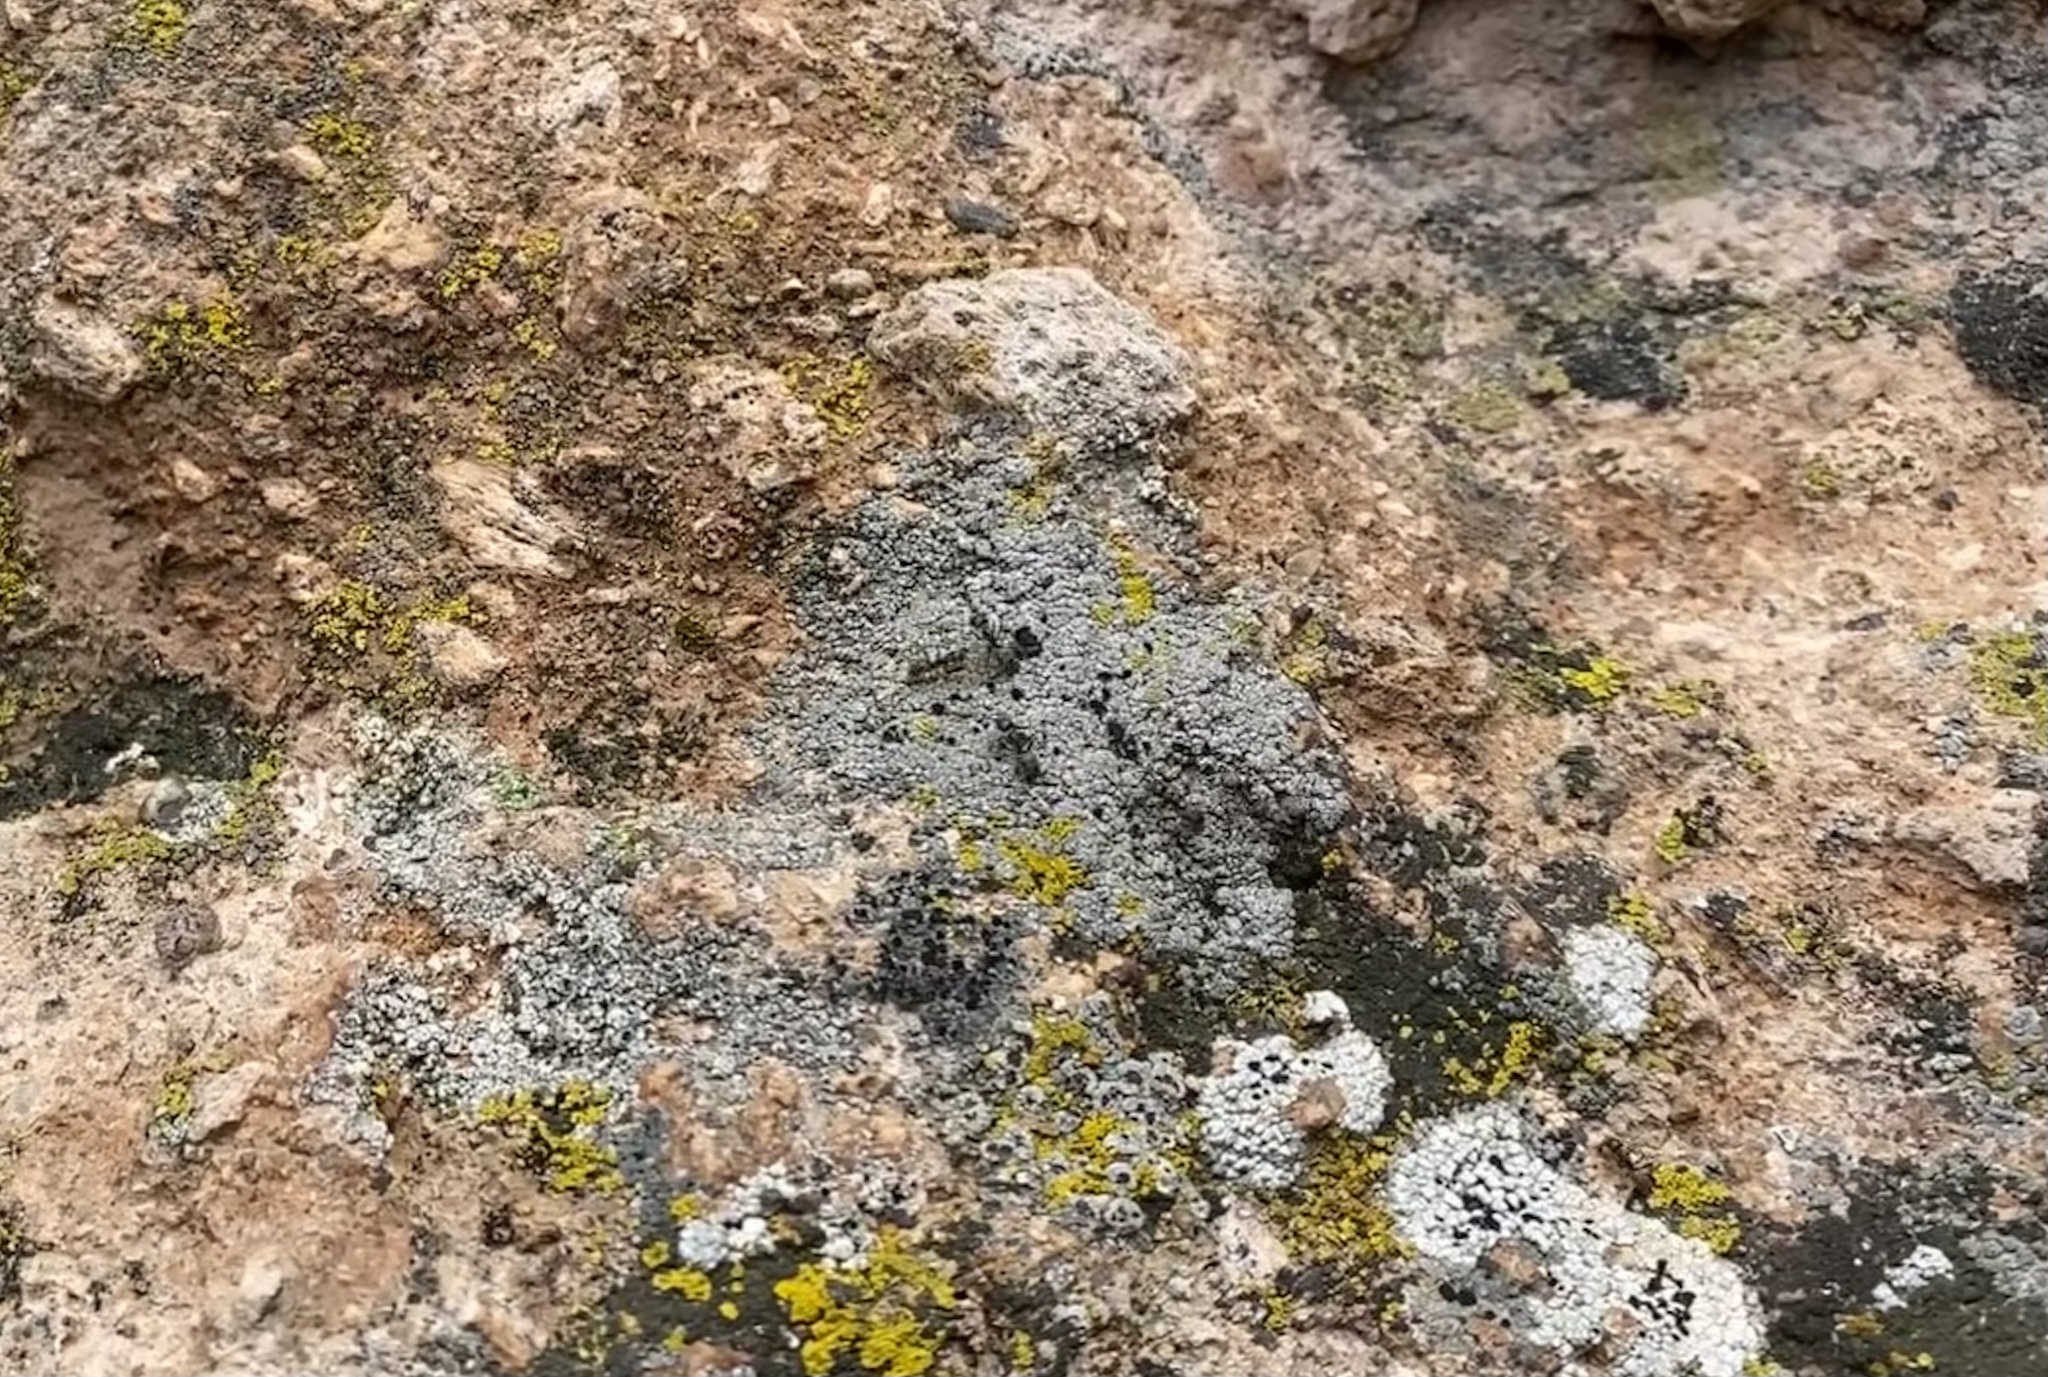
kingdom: Animalia
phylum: Arthropoda
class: Insecta
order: Hymenoptera
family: Formicidae
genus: Liometopum
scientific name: Liometopum
